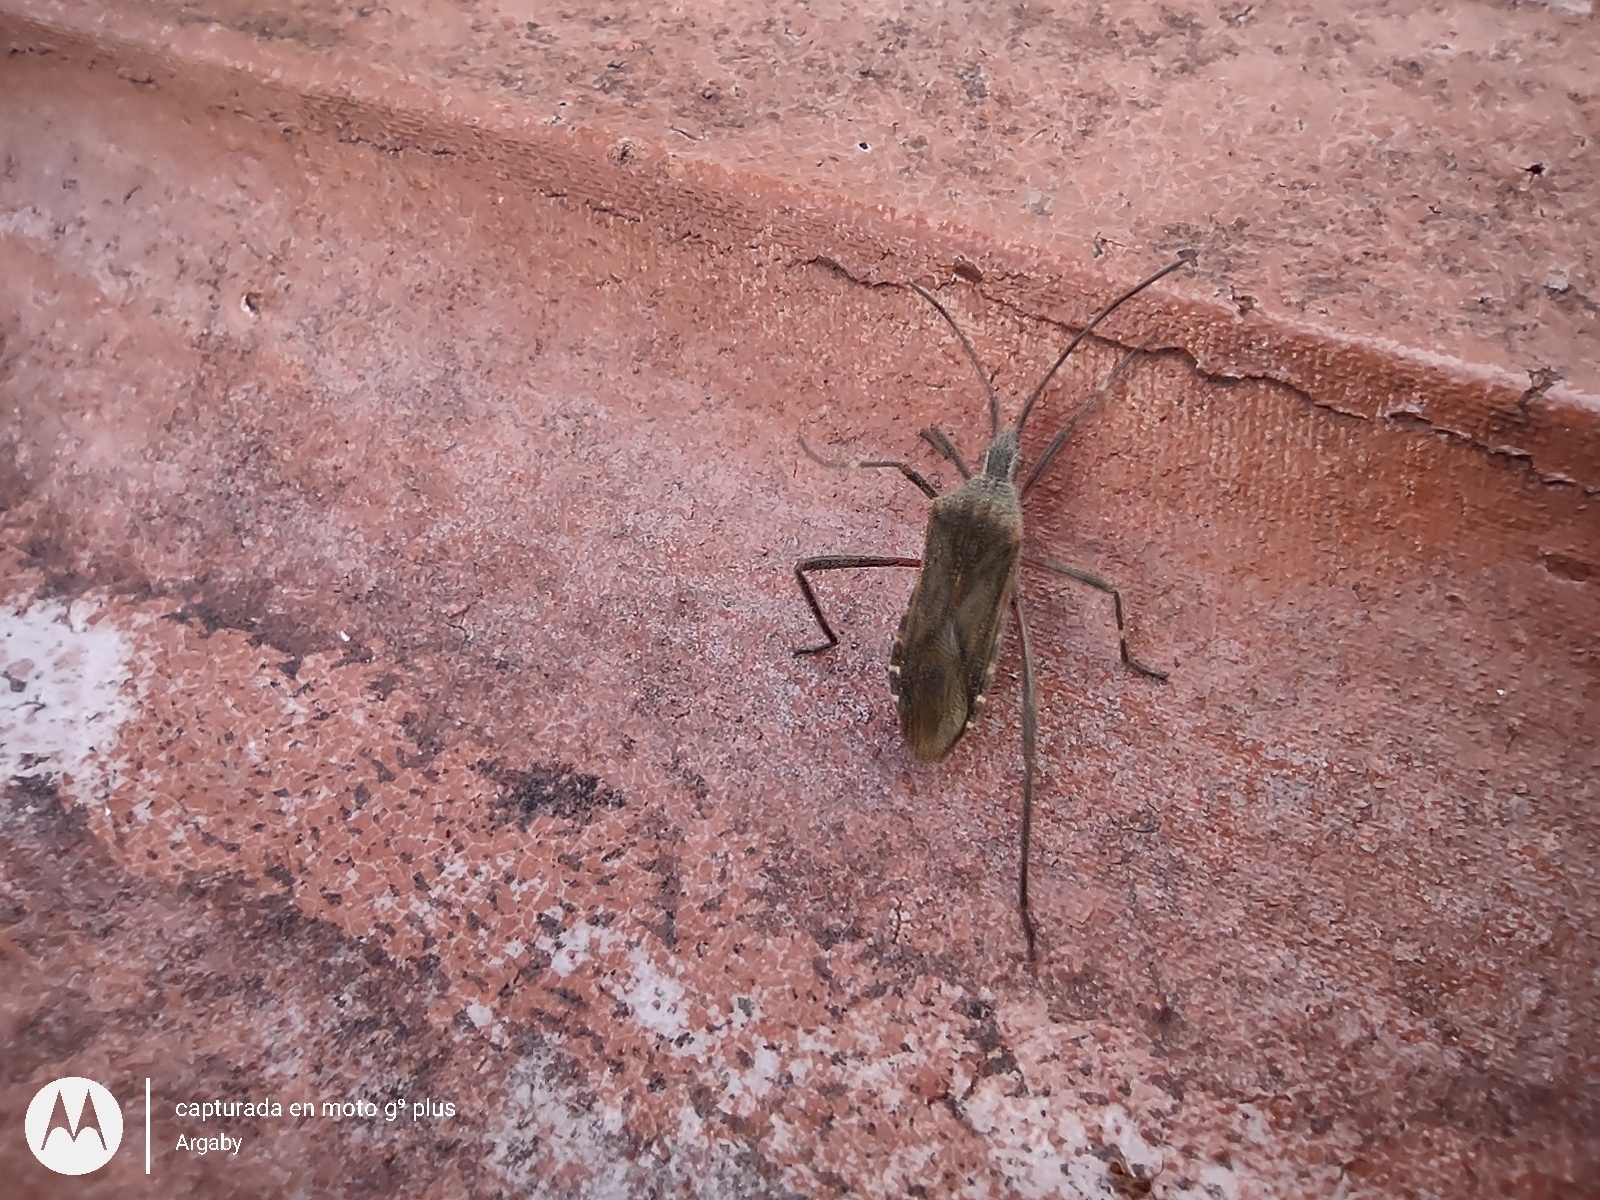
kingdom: Animalia
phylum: Arthropoda
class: Insecta
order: Hemiptera
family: Coreidae
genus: Phthiacnemia
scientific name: Phthiacnemia picta
